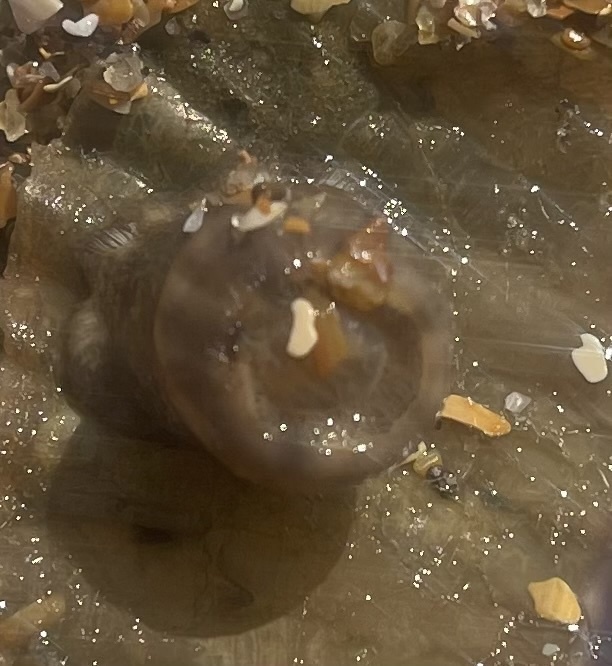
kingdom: Animalia
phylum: Cnidaria
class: Anthozoa
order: Actiniaria
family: Hormathiidae
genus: Calliactis
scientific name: Calliactis tricolor
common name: Hermit anemone
